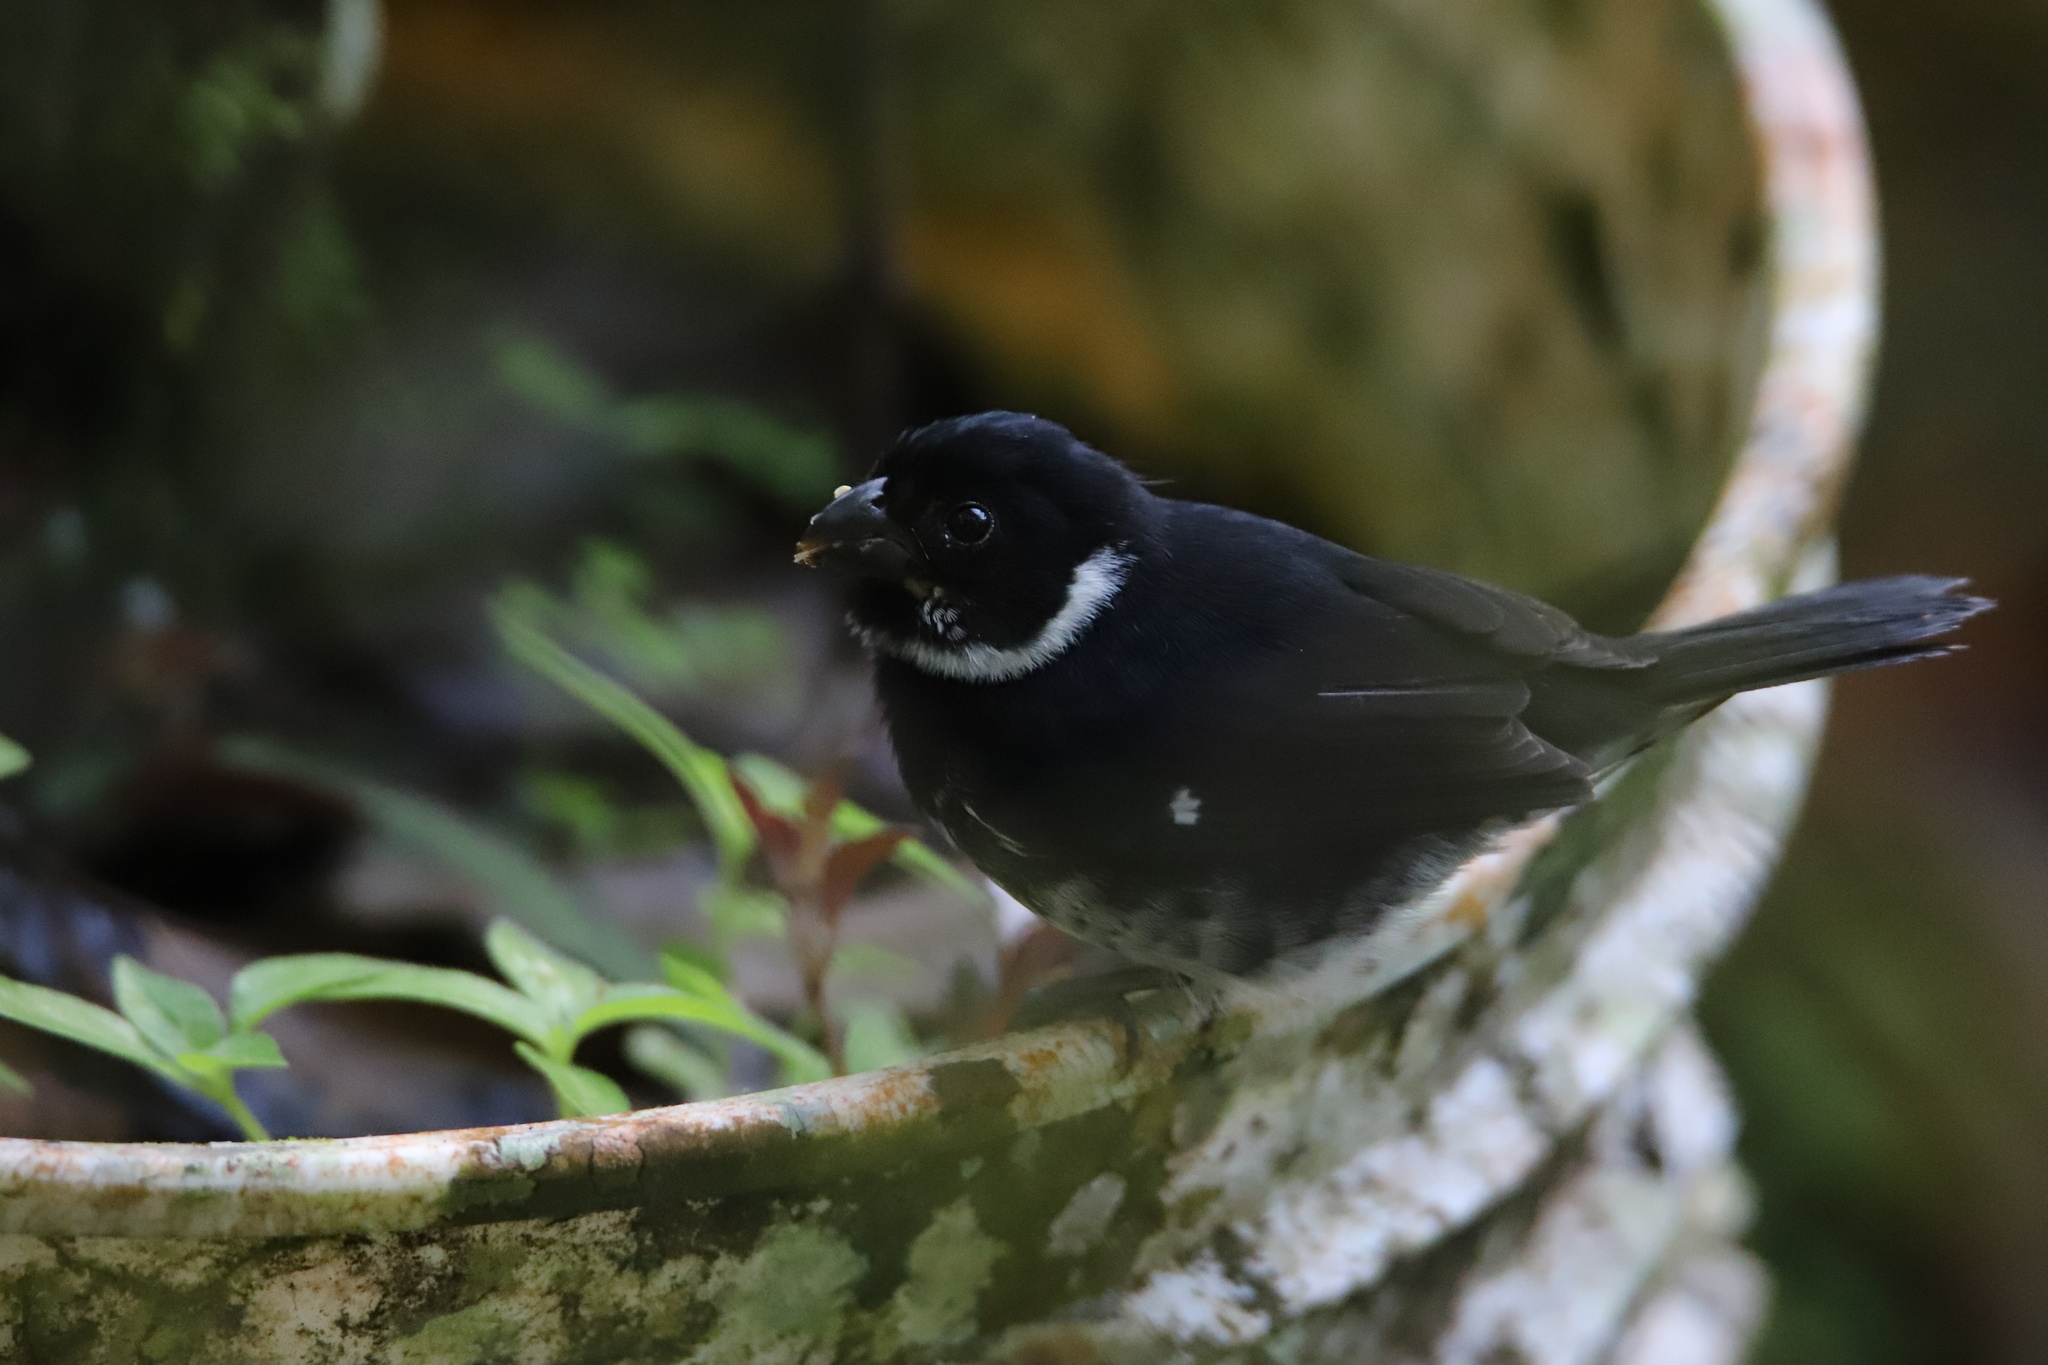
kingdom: Animalia
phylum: Chordata
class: Aves
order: Passeriformes
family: Thraupidae
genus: Sporophila
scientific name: Sporophila corvina
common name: Variable seedeater
